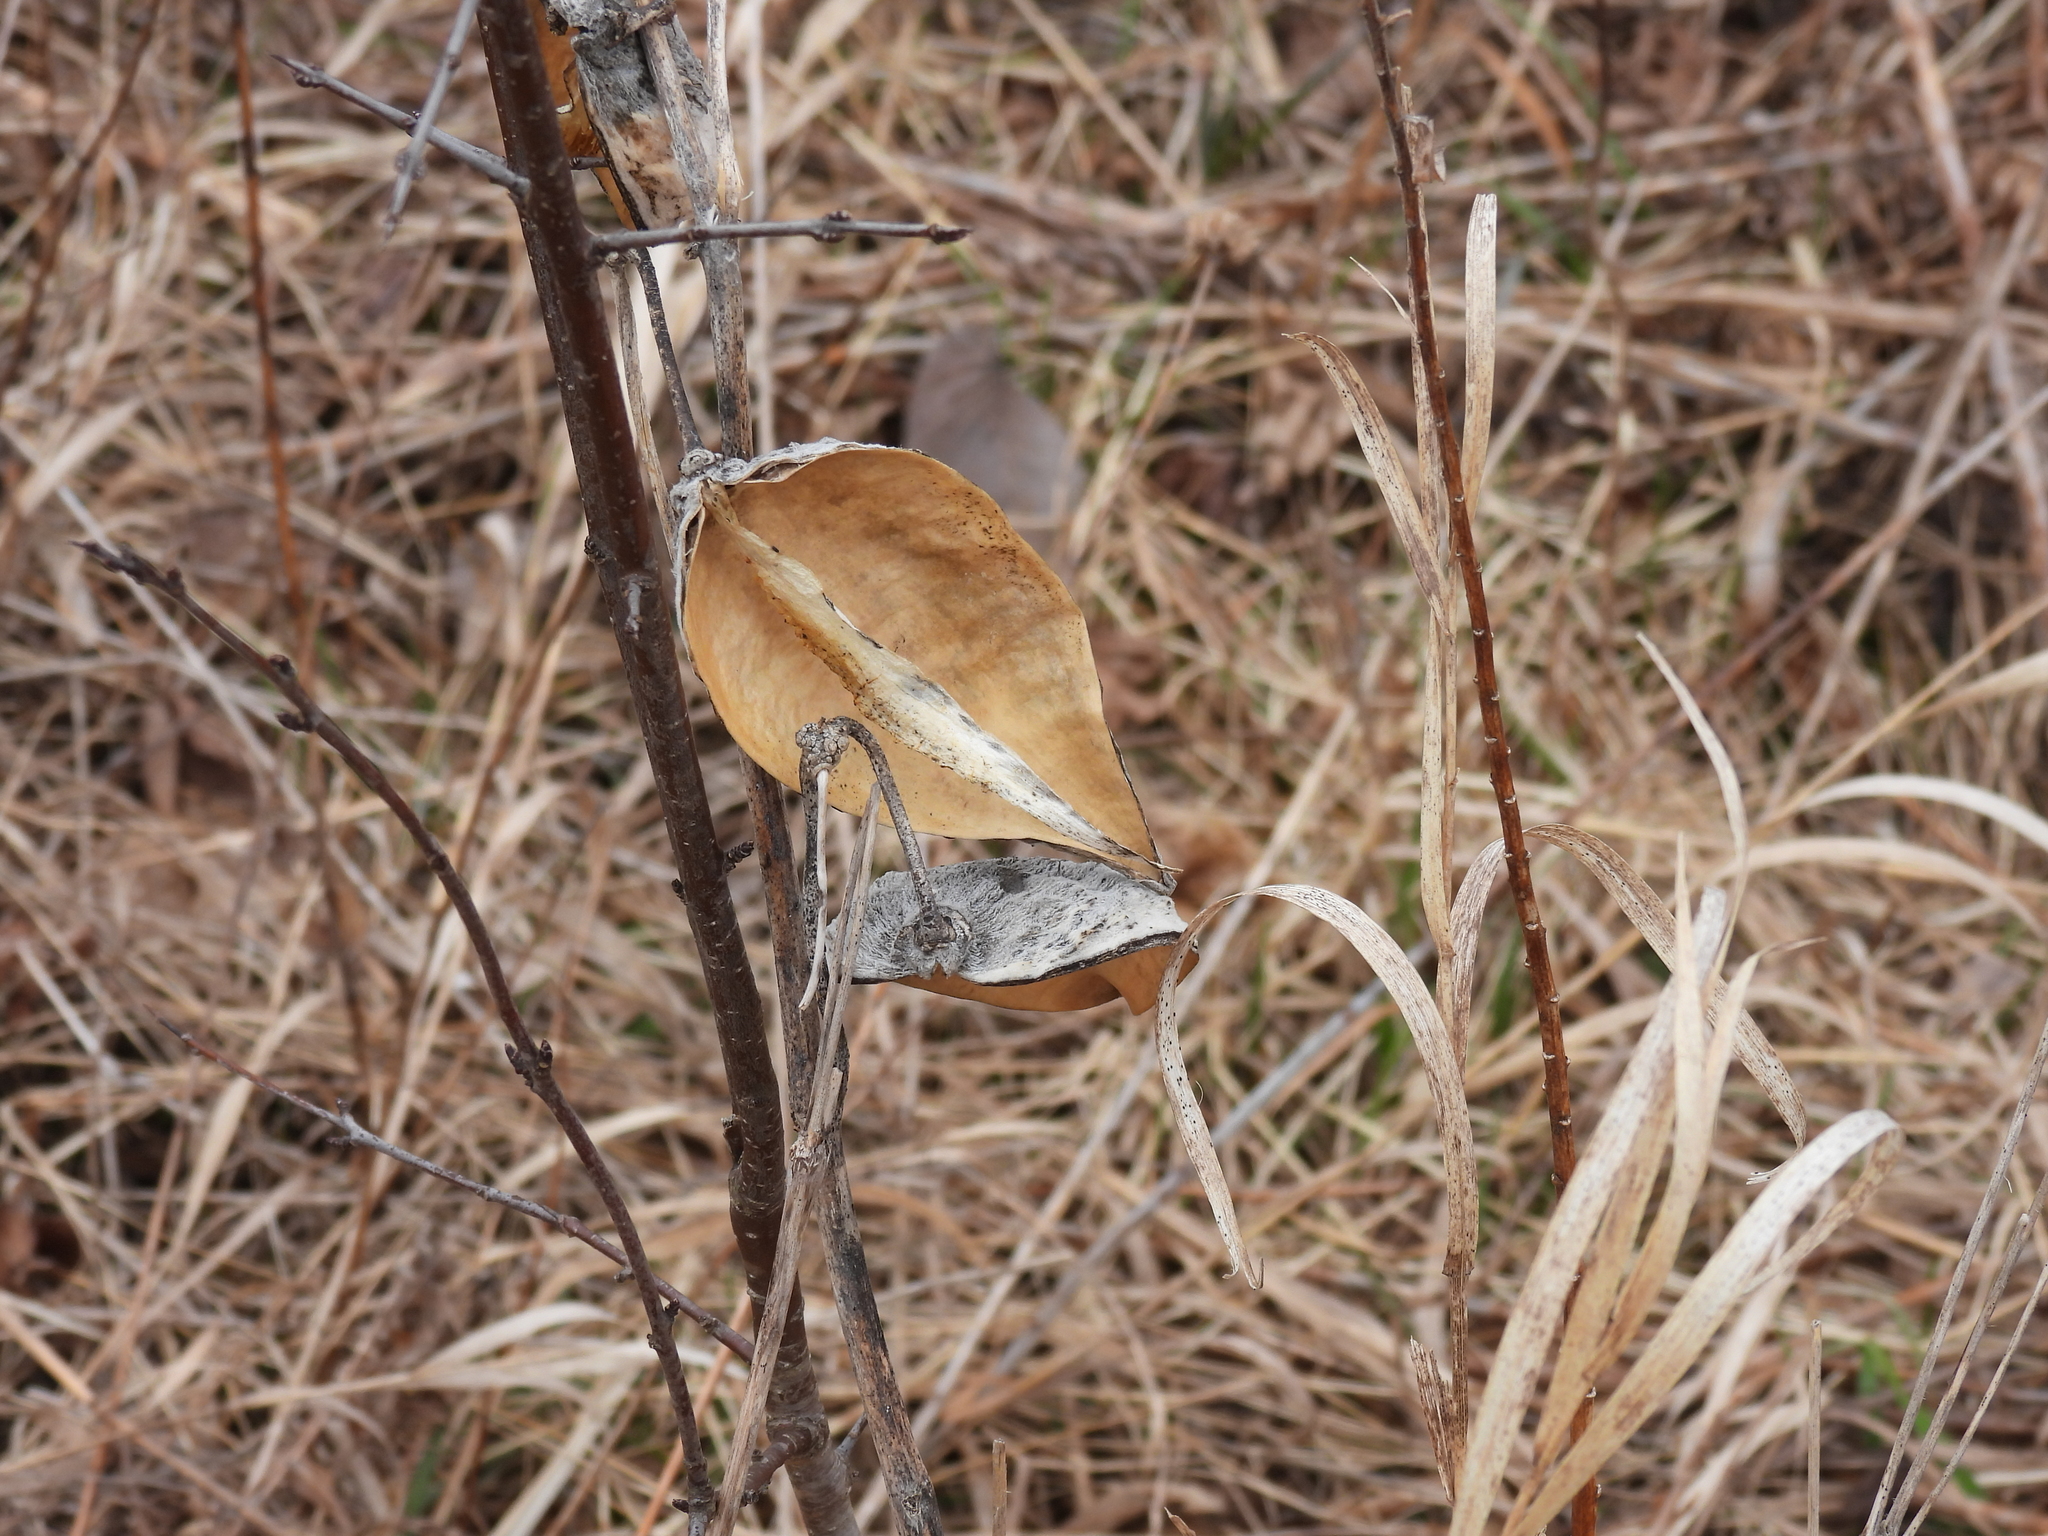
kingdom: Plantae
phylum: Tracheophyta
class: Magnoliopsida
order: Gentianales
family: Apocynaceae
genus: Asclepias
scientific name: Asclepias syriaca
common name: Common milkweed
